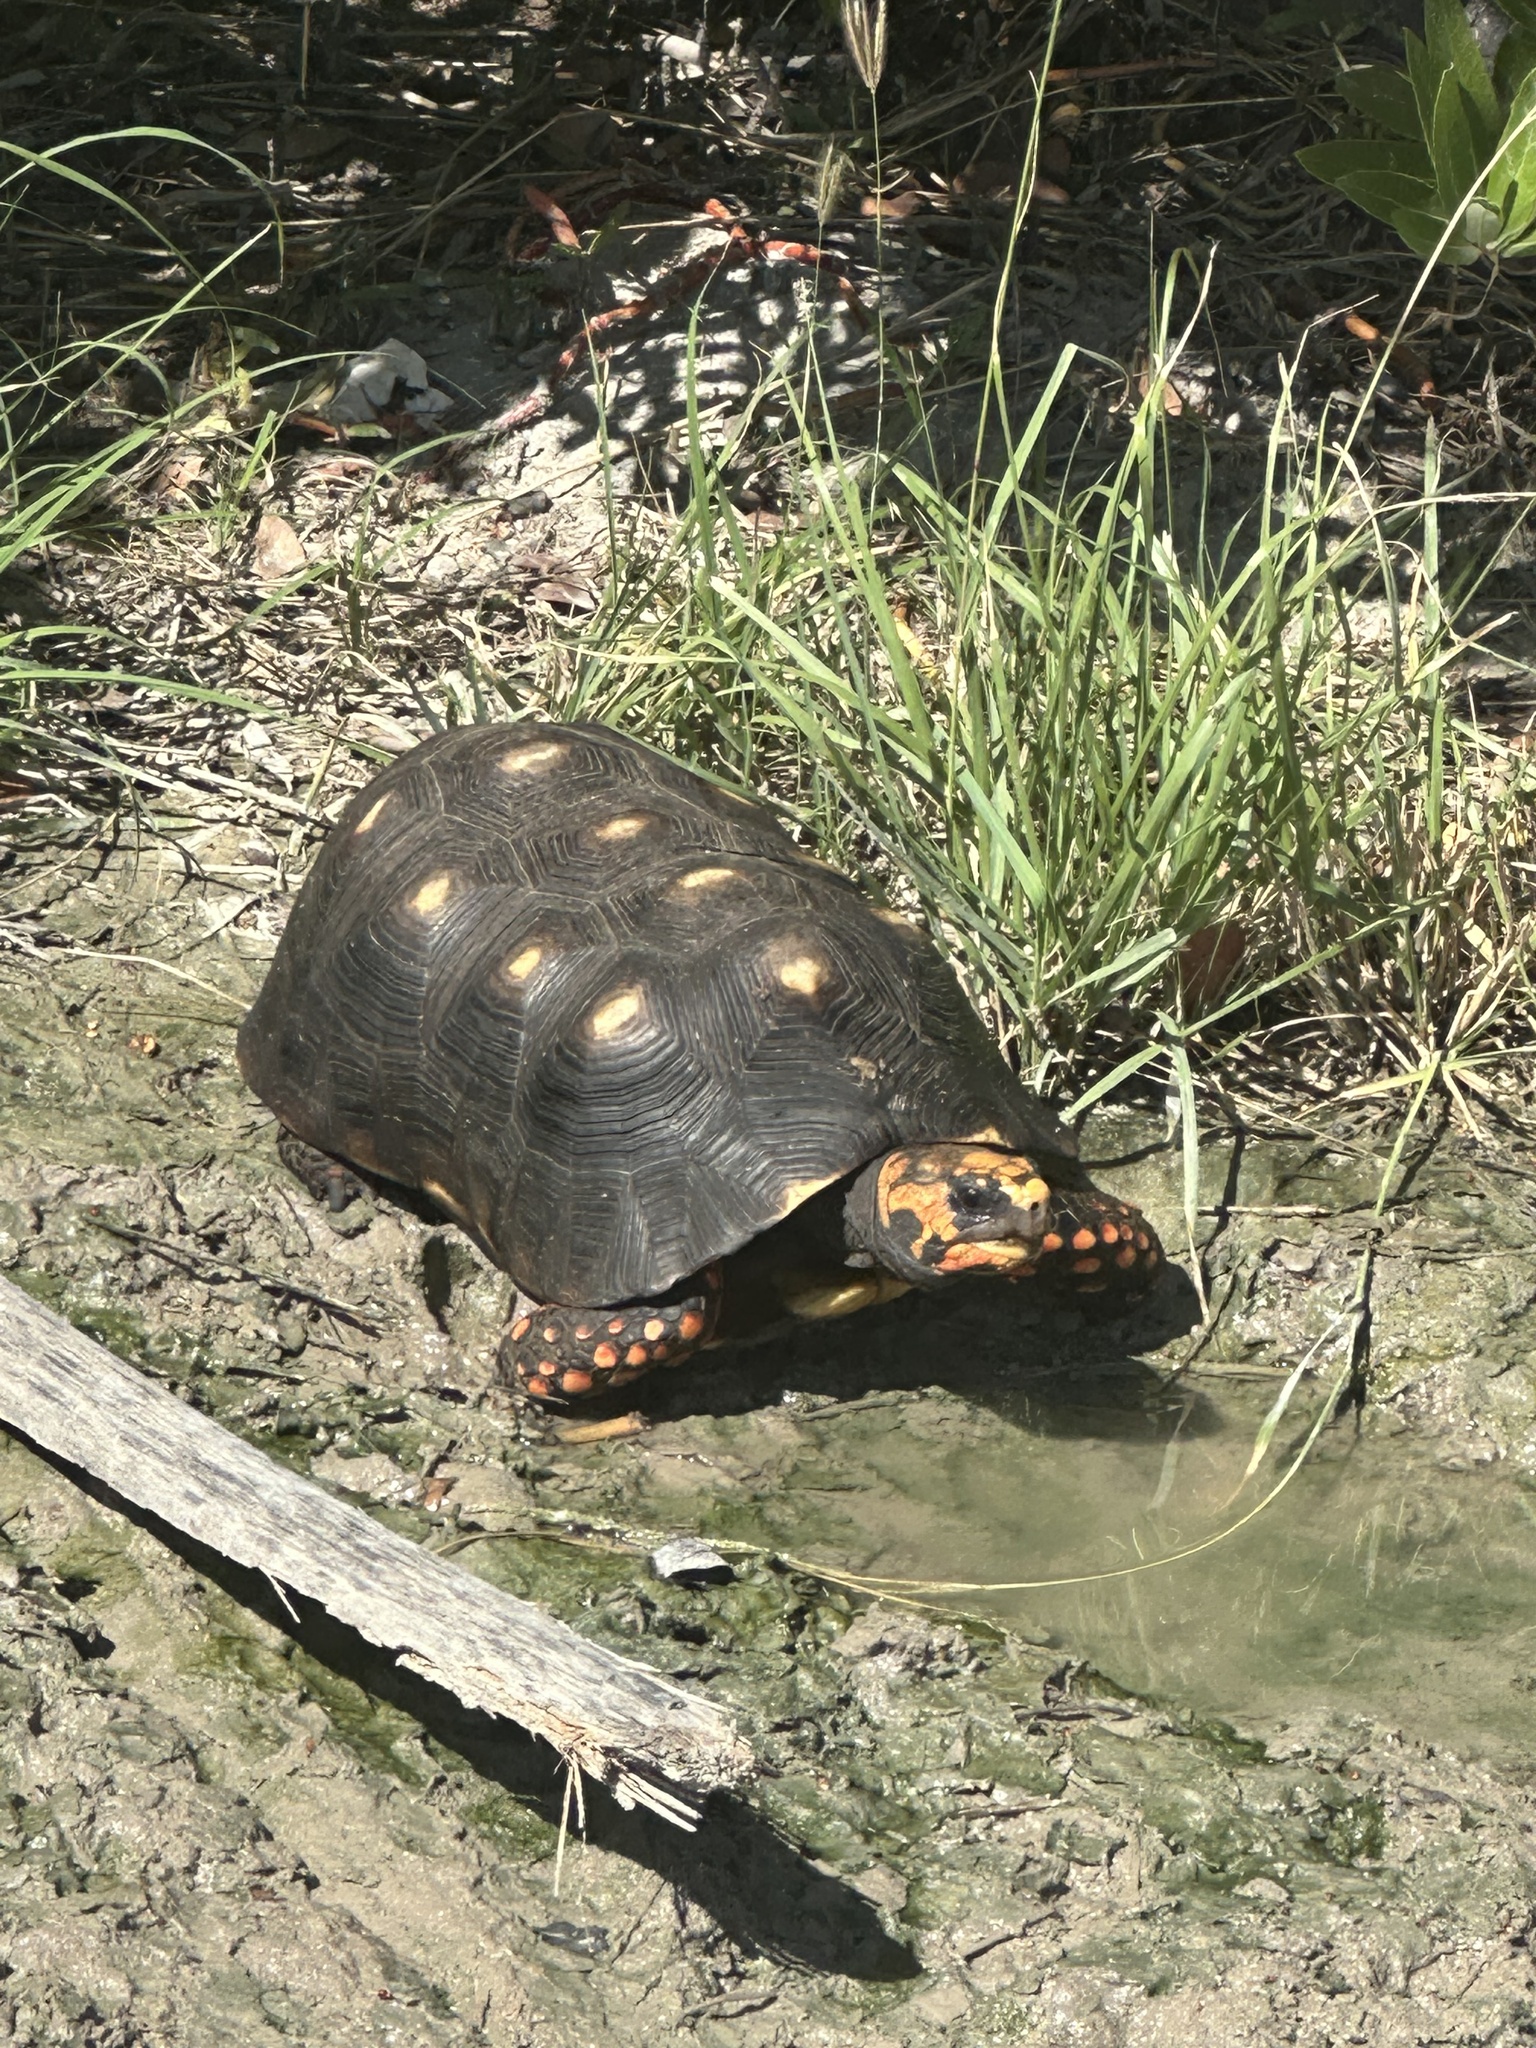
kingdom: Animalia
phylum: Chordata
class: Testudines
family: Testudinidae
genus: Chelonoidis
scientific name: Chelonoidis carbonarius
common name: Red-footed tortoise
